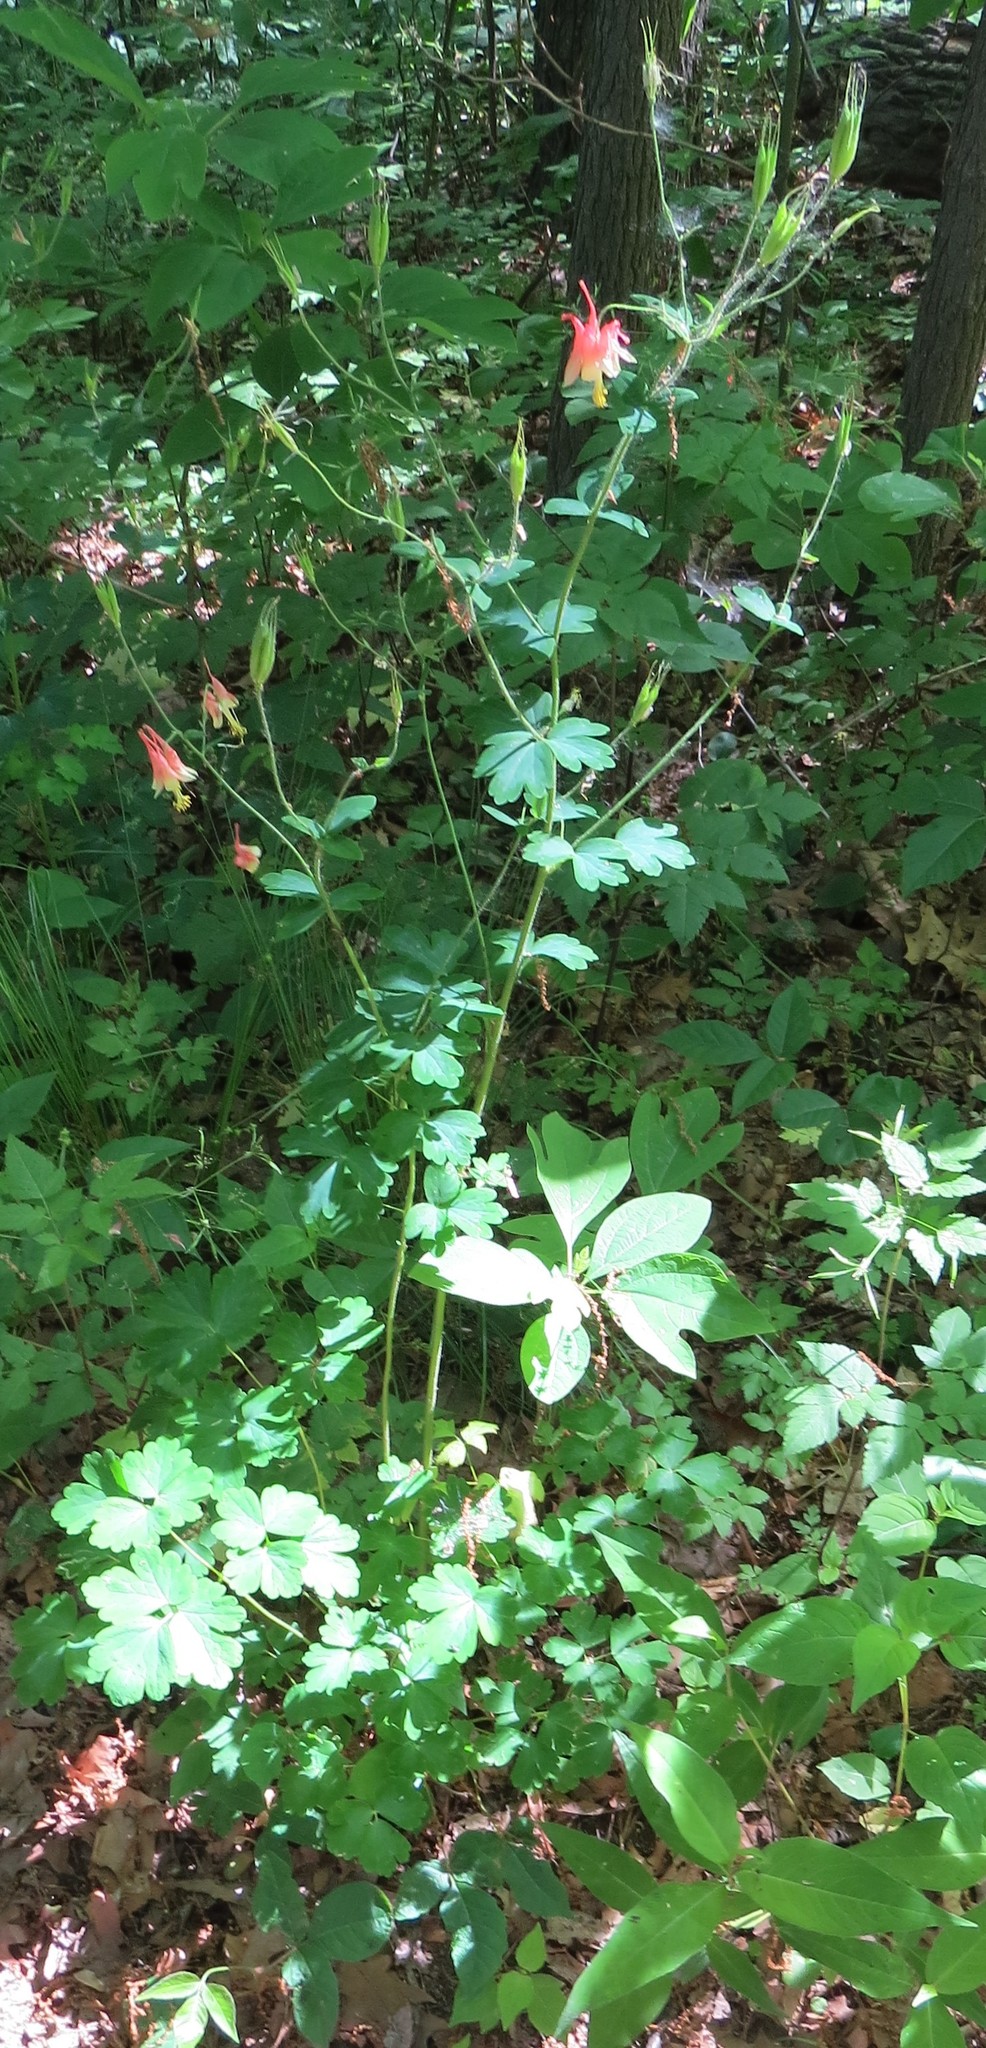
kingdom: Plantae
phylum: Tracheophyta
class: Magnoliopsida
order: Ranunculales
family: Ranunculaceae
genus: Aquilegia
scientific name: Aquilegia canadensis
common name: American columbine
